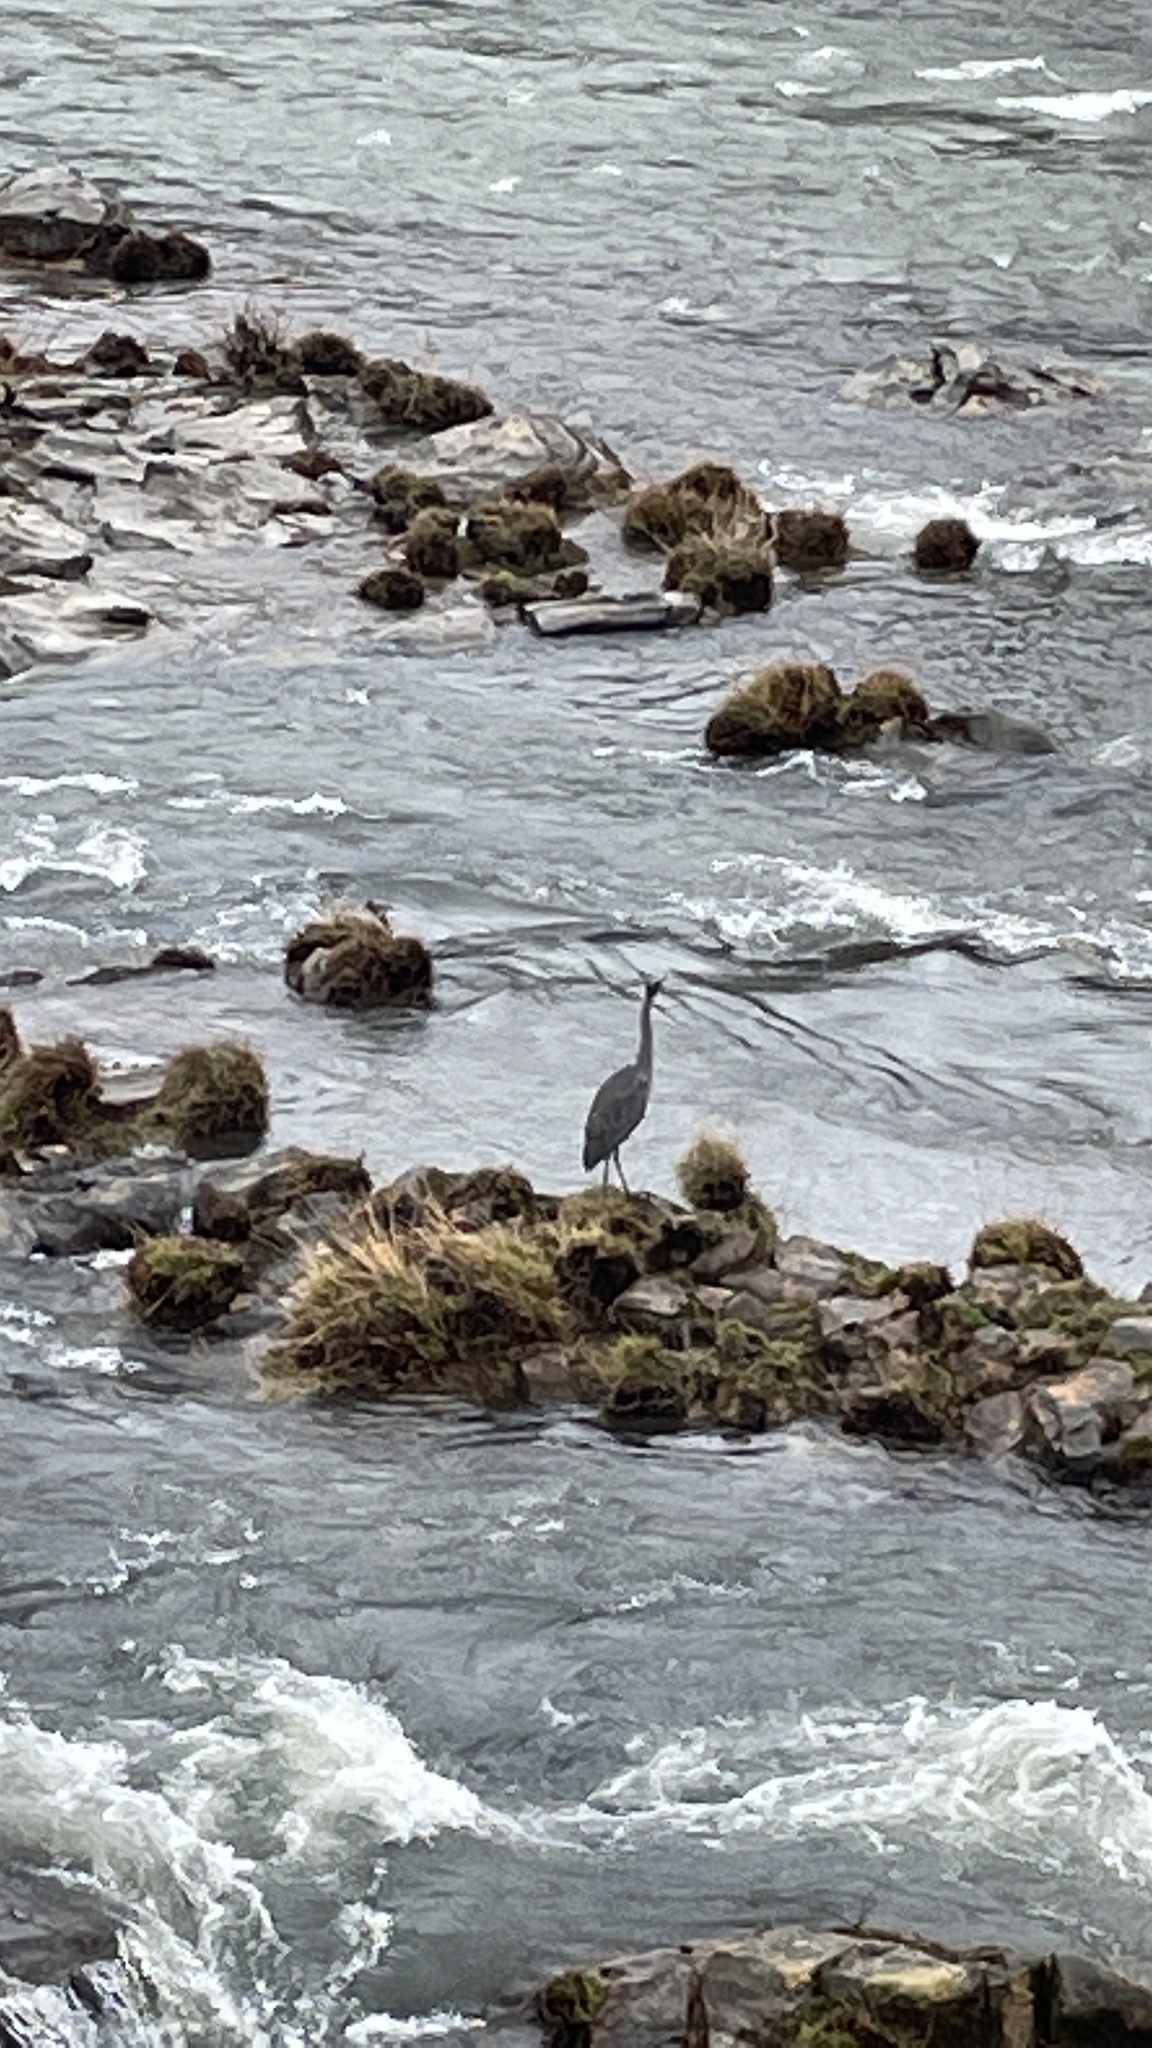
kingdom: Animalia
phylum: Chordata
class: Aves
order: Pelecaniformes
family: Ardeidae
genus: Ardea
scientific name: Ardea herodias
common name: Great blue heron
